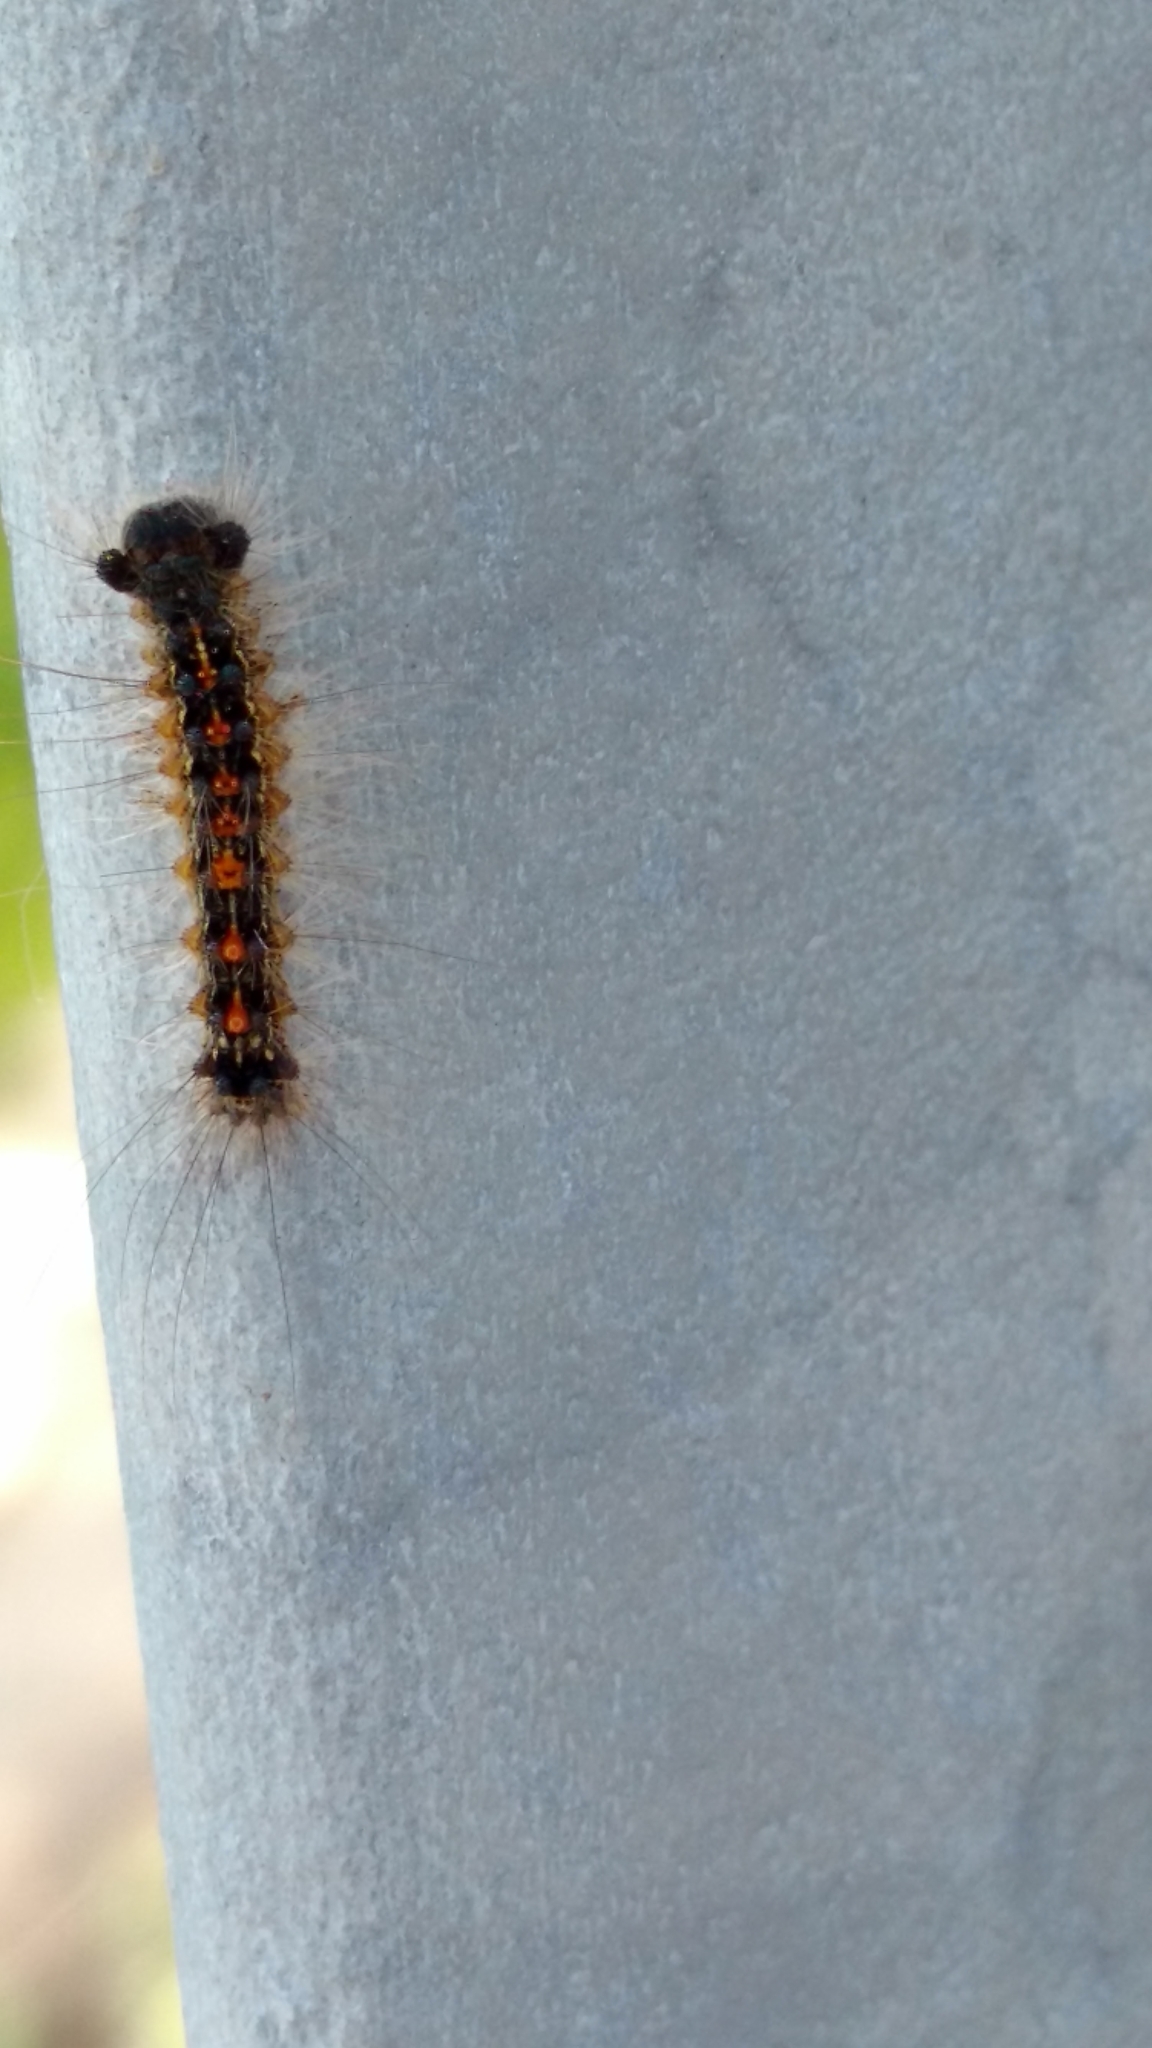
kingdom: Animalia
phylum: Arthropoda
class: Insecta
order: Lepidoptera
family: Erebidae
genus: Lymantria
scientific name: Lymantria dispar
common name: Gypsy moth
